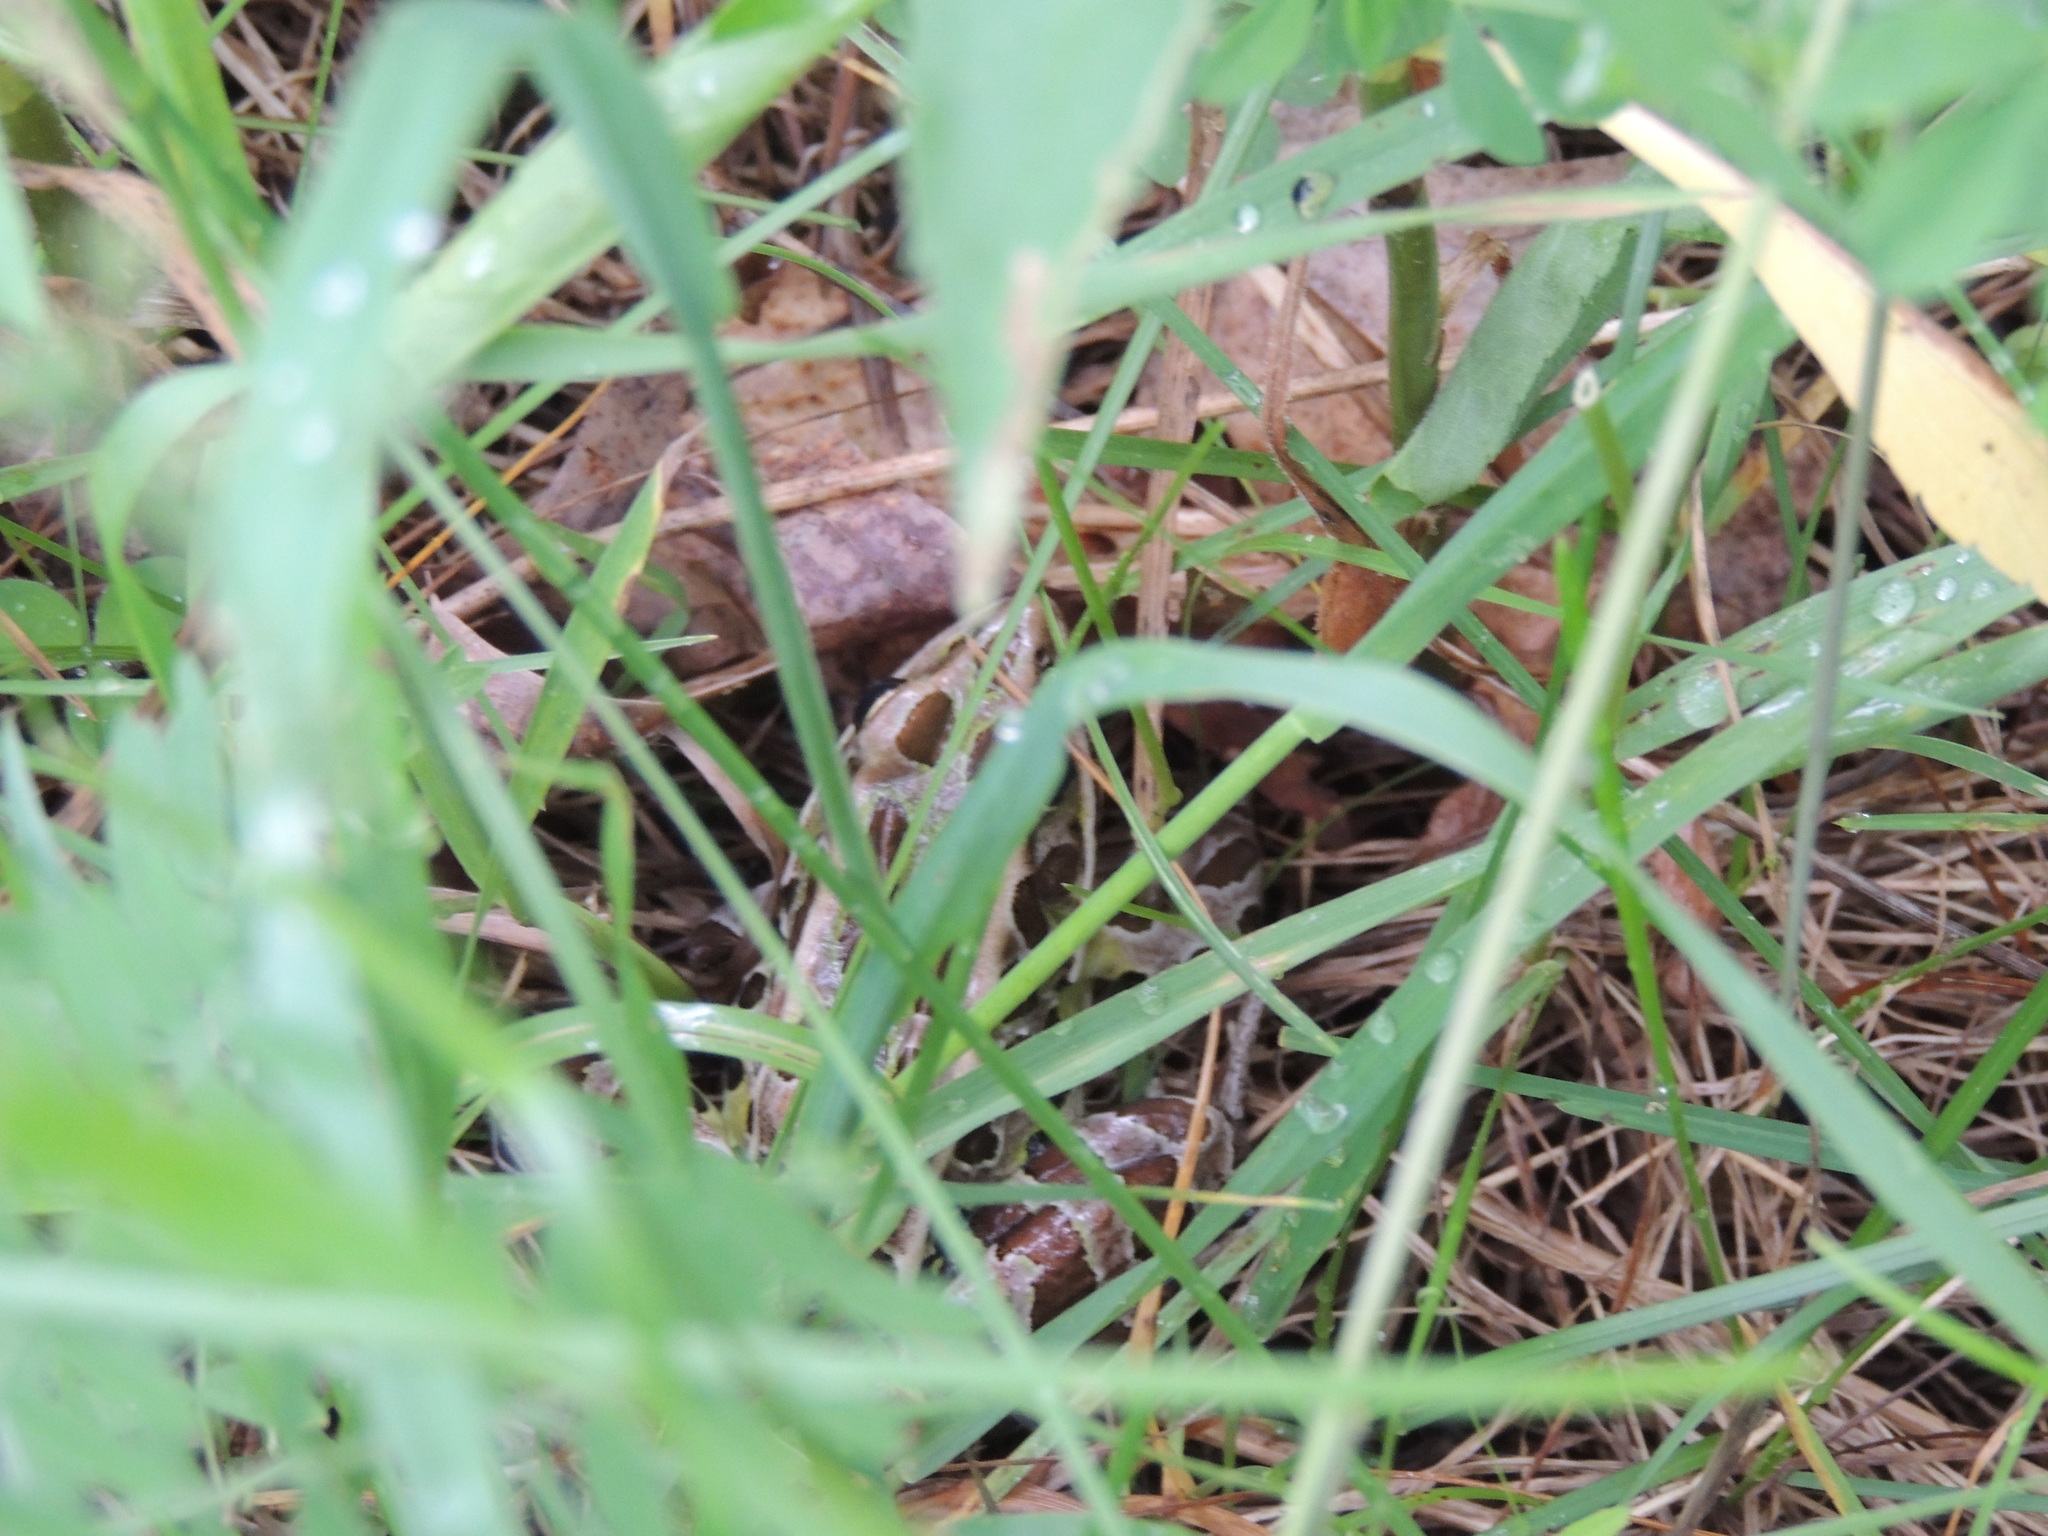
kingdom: Animalia
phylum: Chordata
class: Amphibia
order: Anura
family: Ranidae
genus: Lithobates
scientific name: Lithobates pipiens
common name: Northern leopard frog
